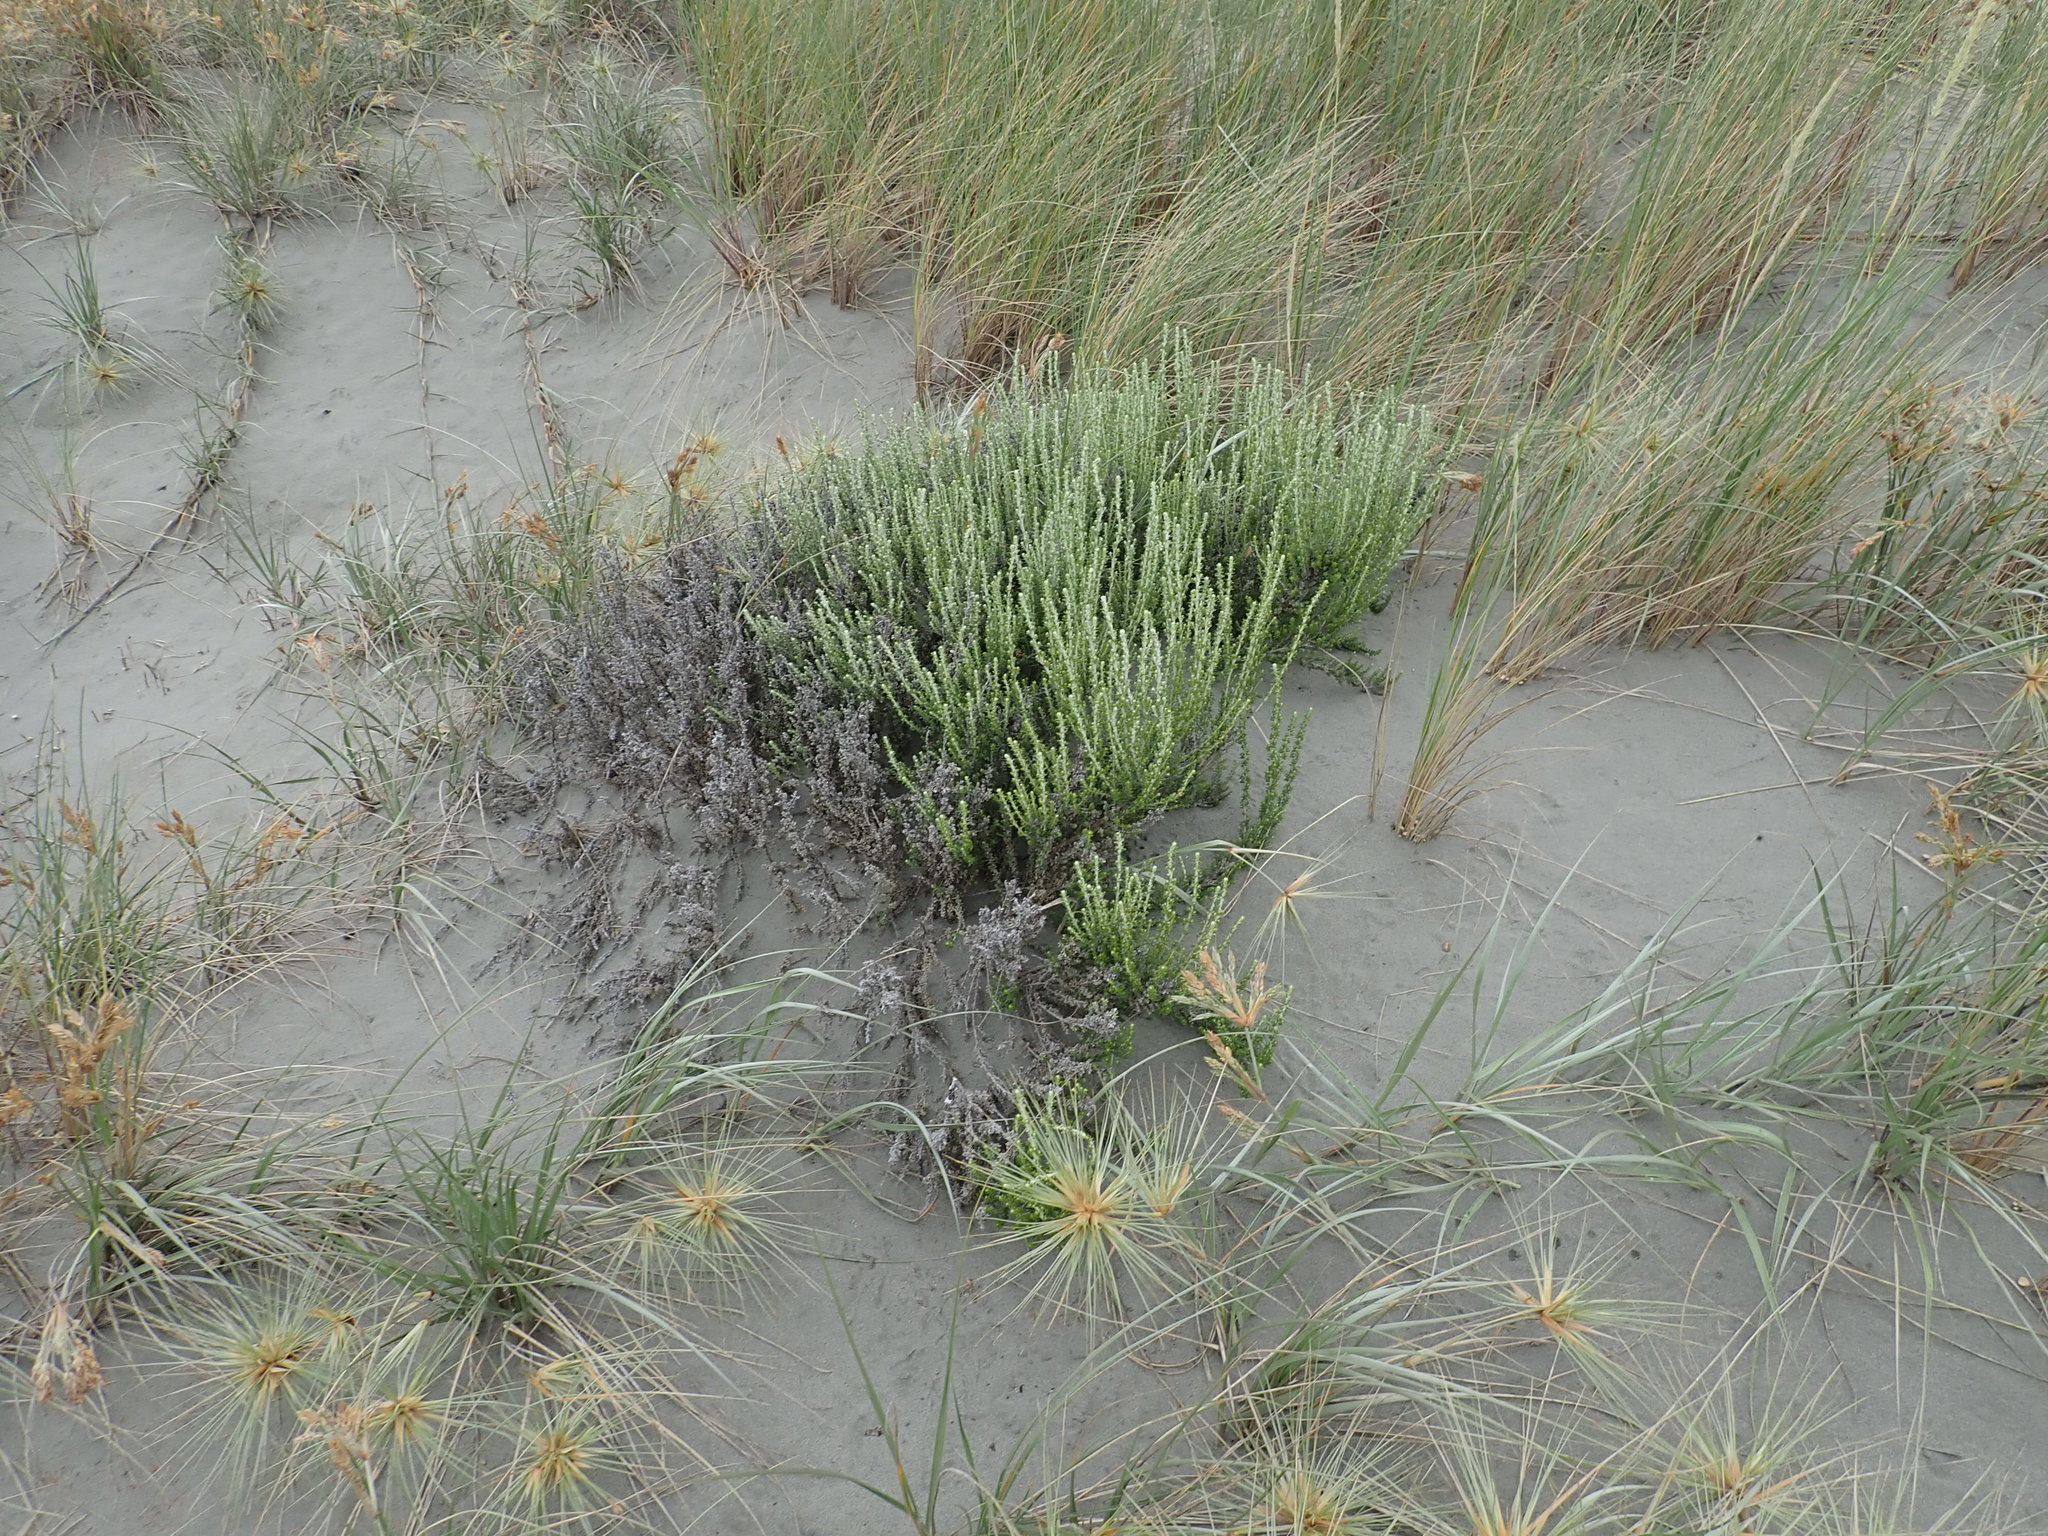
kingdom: Plantae
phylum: Tracheophyta
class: Magnoliopsida
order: Asterales
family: Asteraceae
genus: Ozothamnus
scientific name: Ozothamnus leptophyllus
